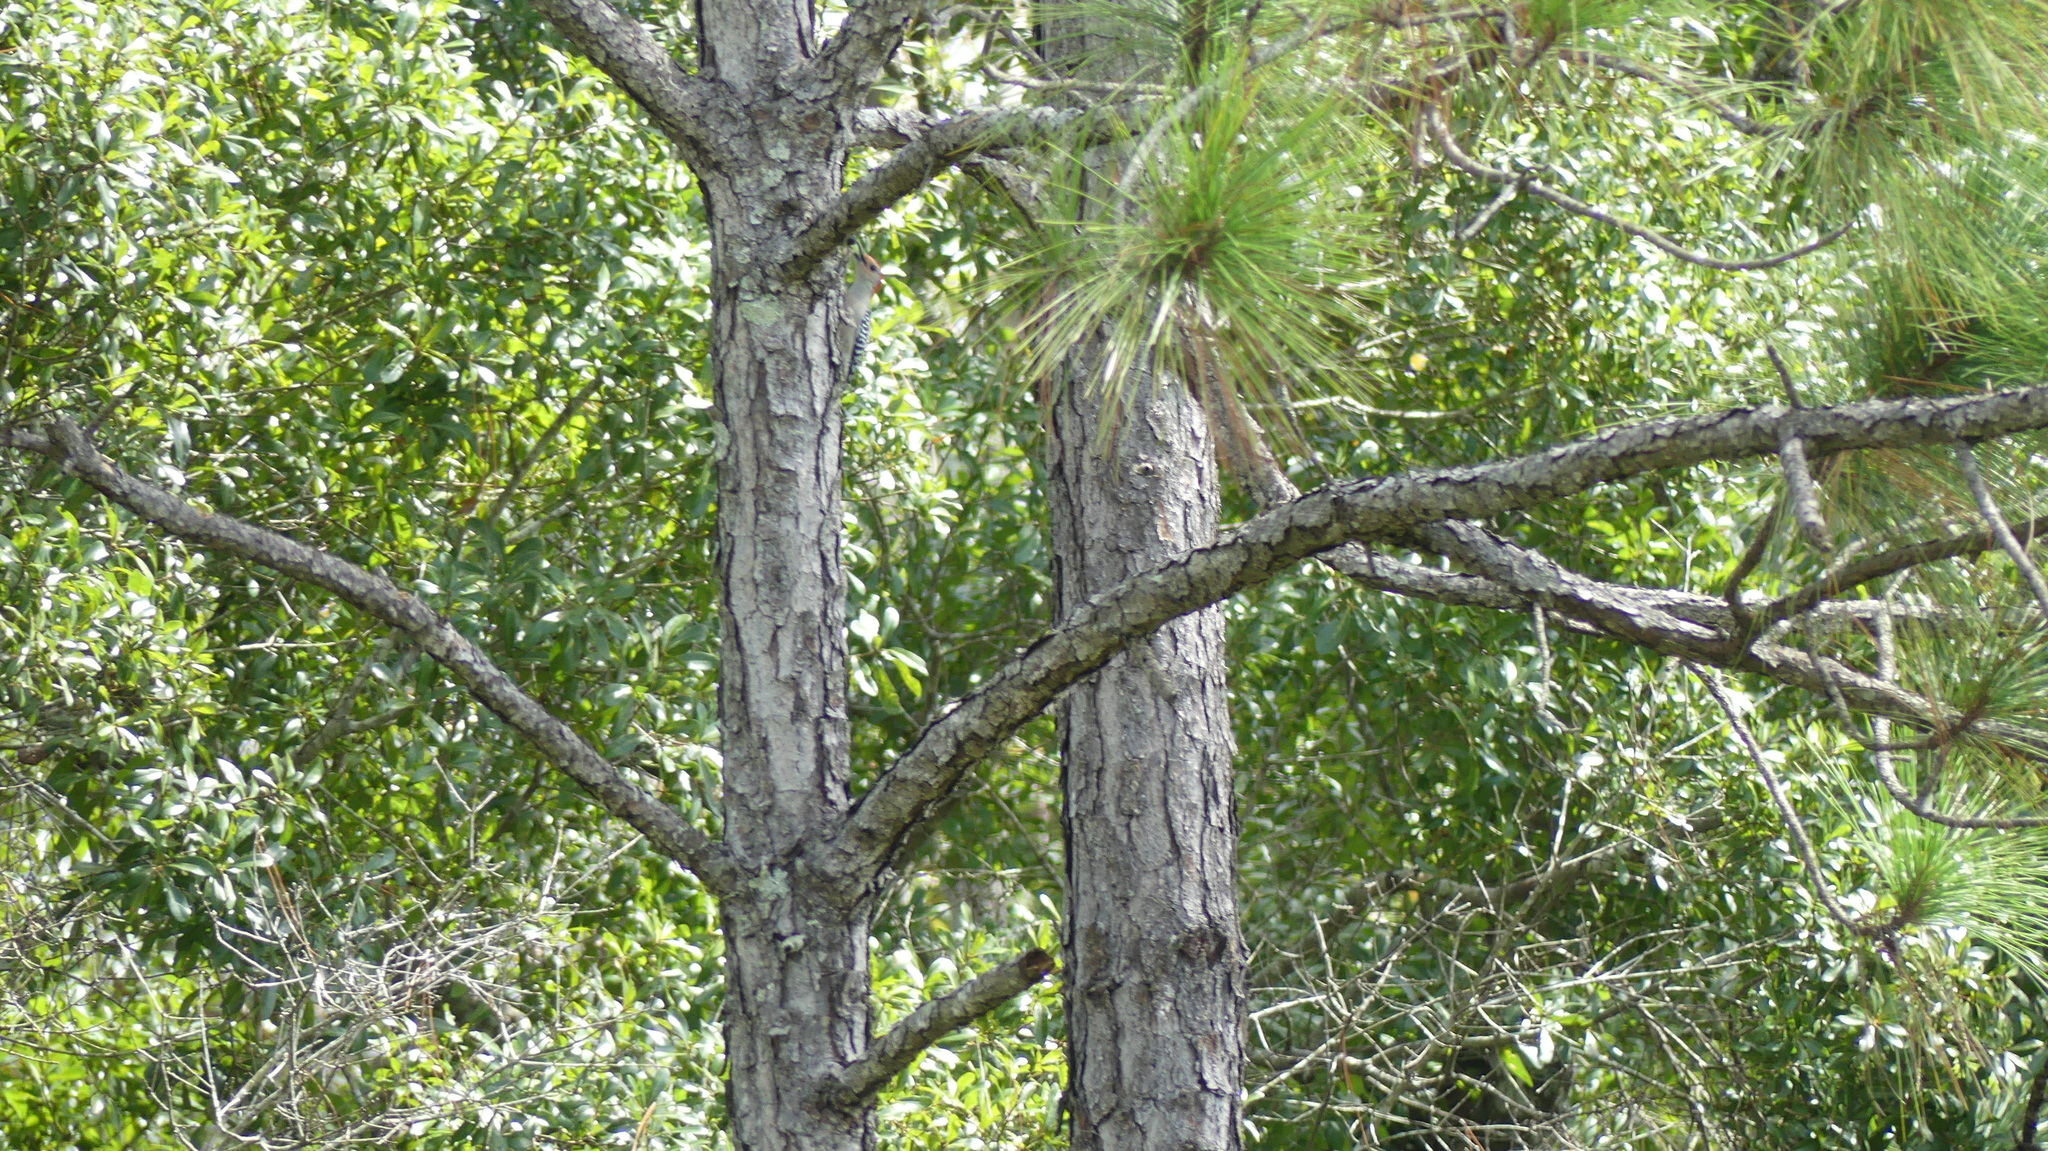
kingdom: Animalia
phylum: Chordata
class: Aves
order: Piciformes
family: Picidae
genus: Melanerpes
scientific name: Melanerpes carolinus
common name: Red-bellied woodpecker
